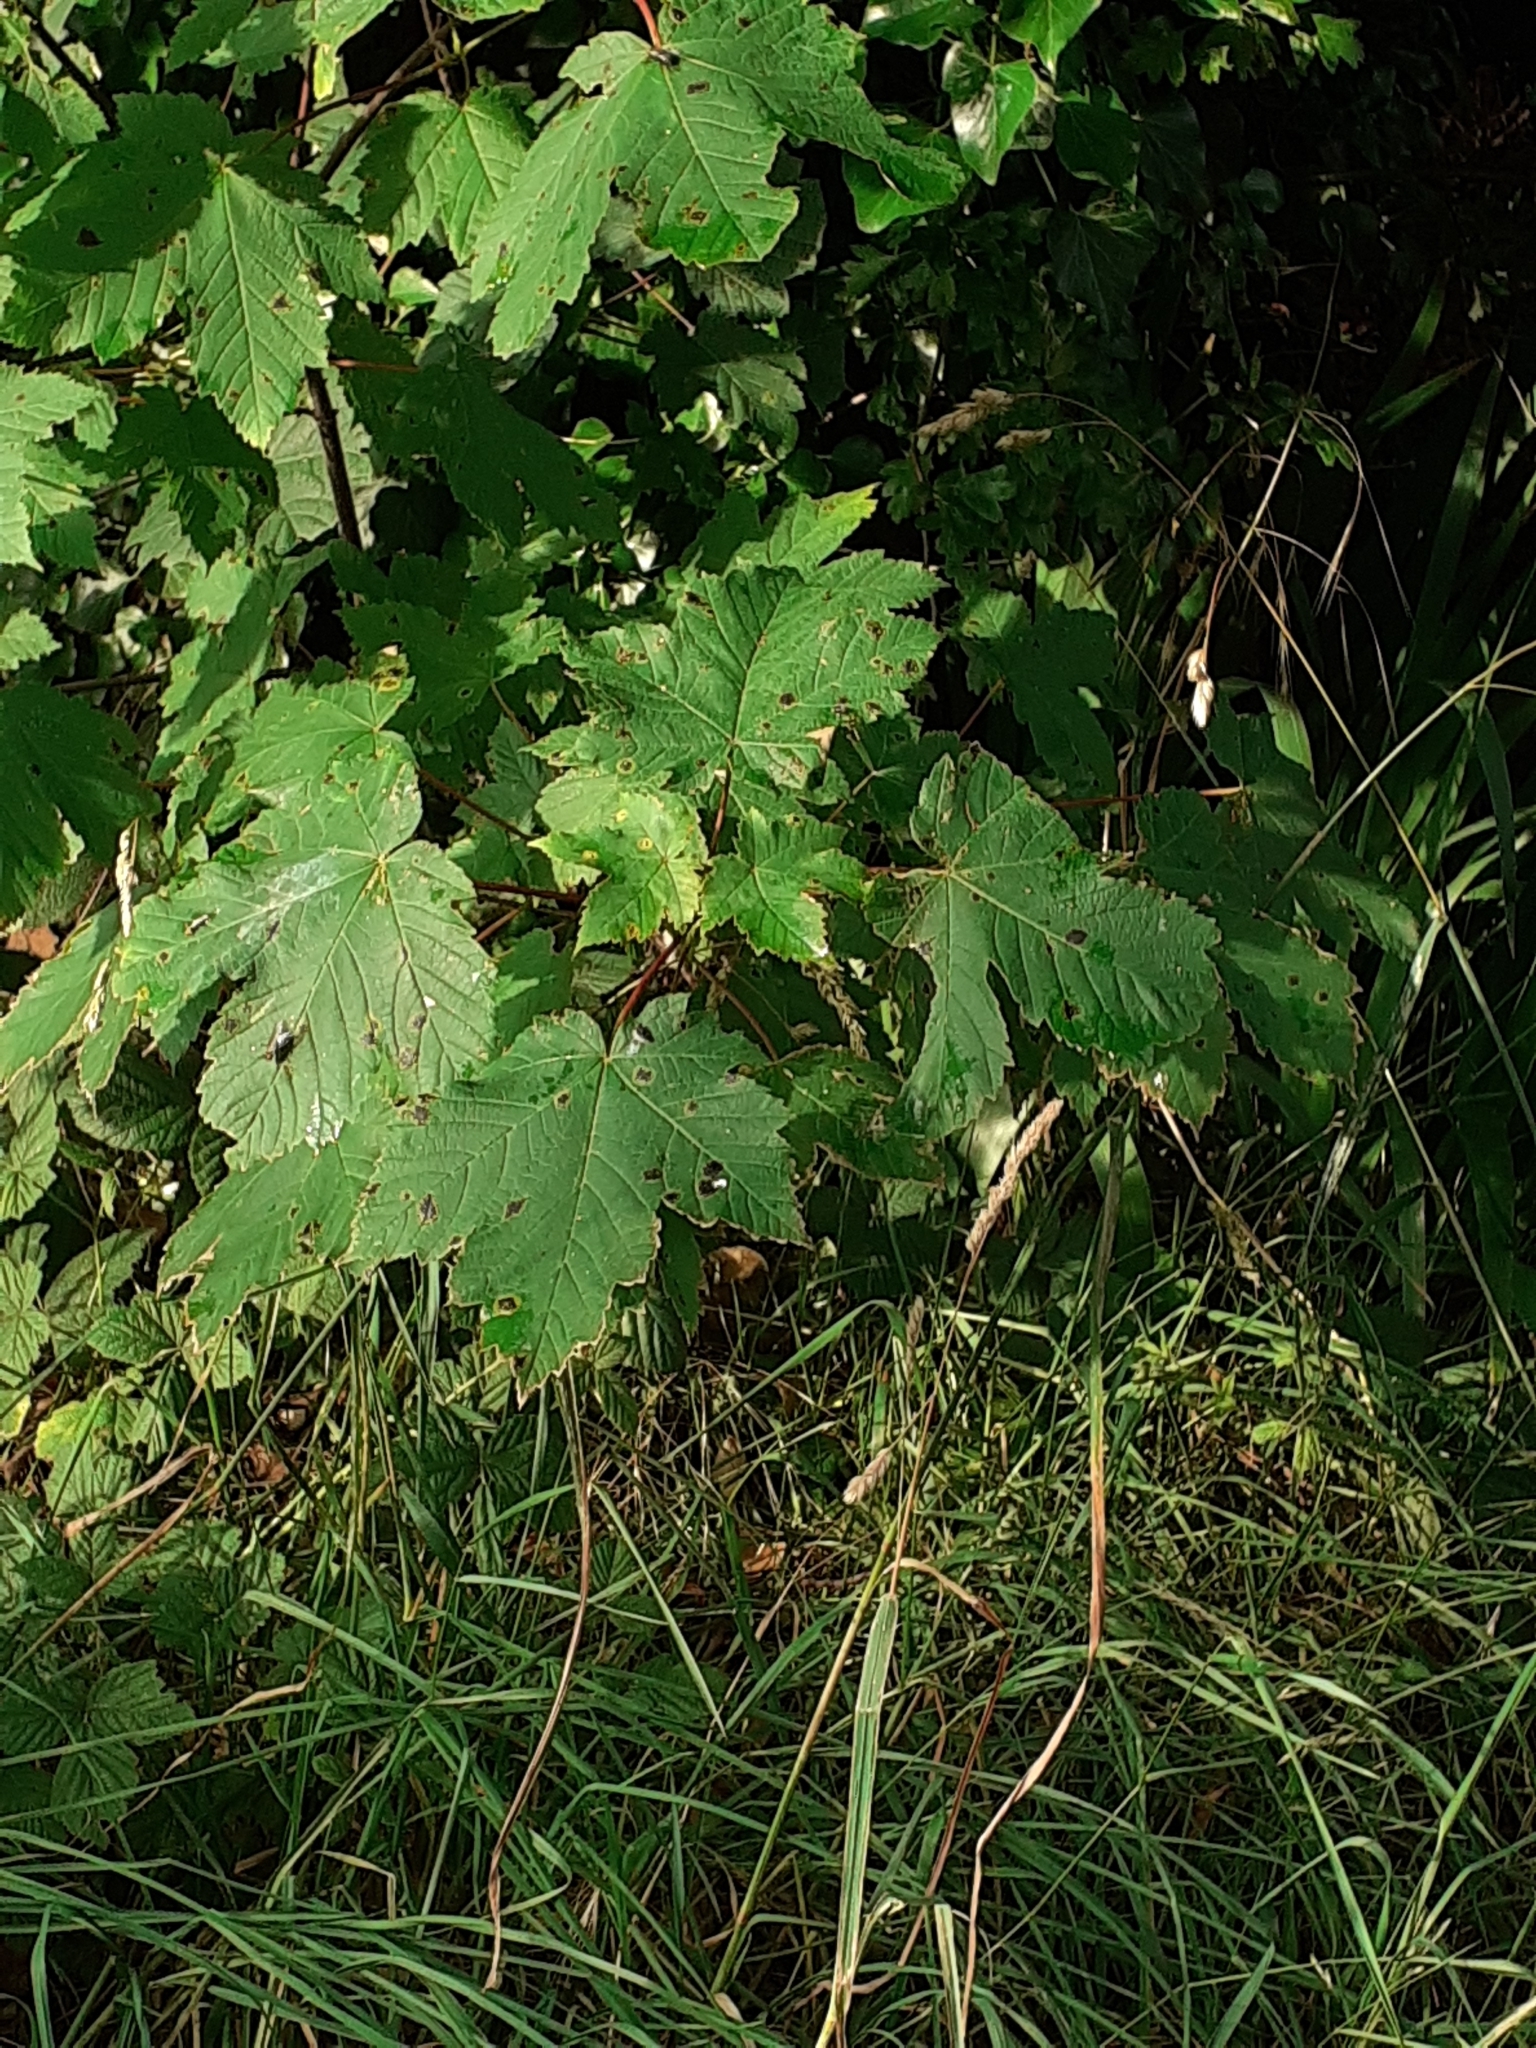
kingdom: Plantae
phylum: Tracheophyta
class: Magnoliopsida
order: Sapindales
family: Sapindaceae
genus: Acer
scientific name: Acer pseudoplatanus
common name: Sycamore
